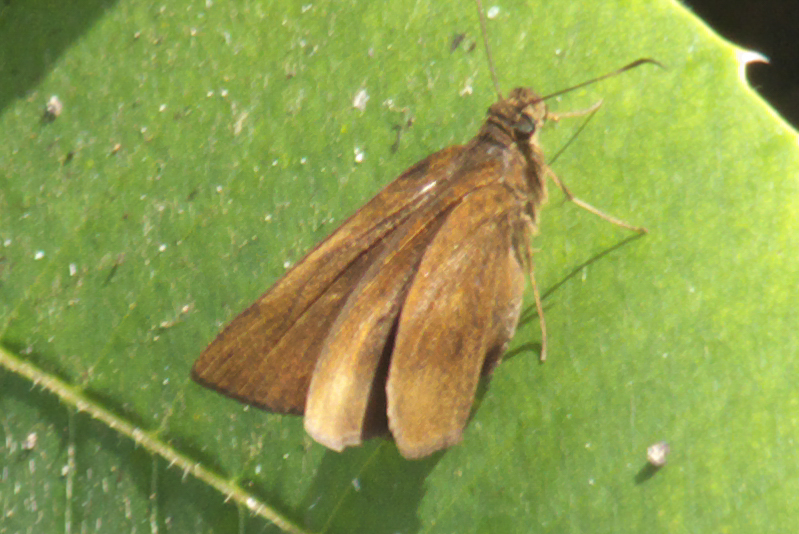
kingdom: Animalia
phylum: Arthropoda
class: Insecta
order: Lepidoptera
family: Hesperiidae
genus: Ancistroides
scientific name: Ancistroides nigrita
